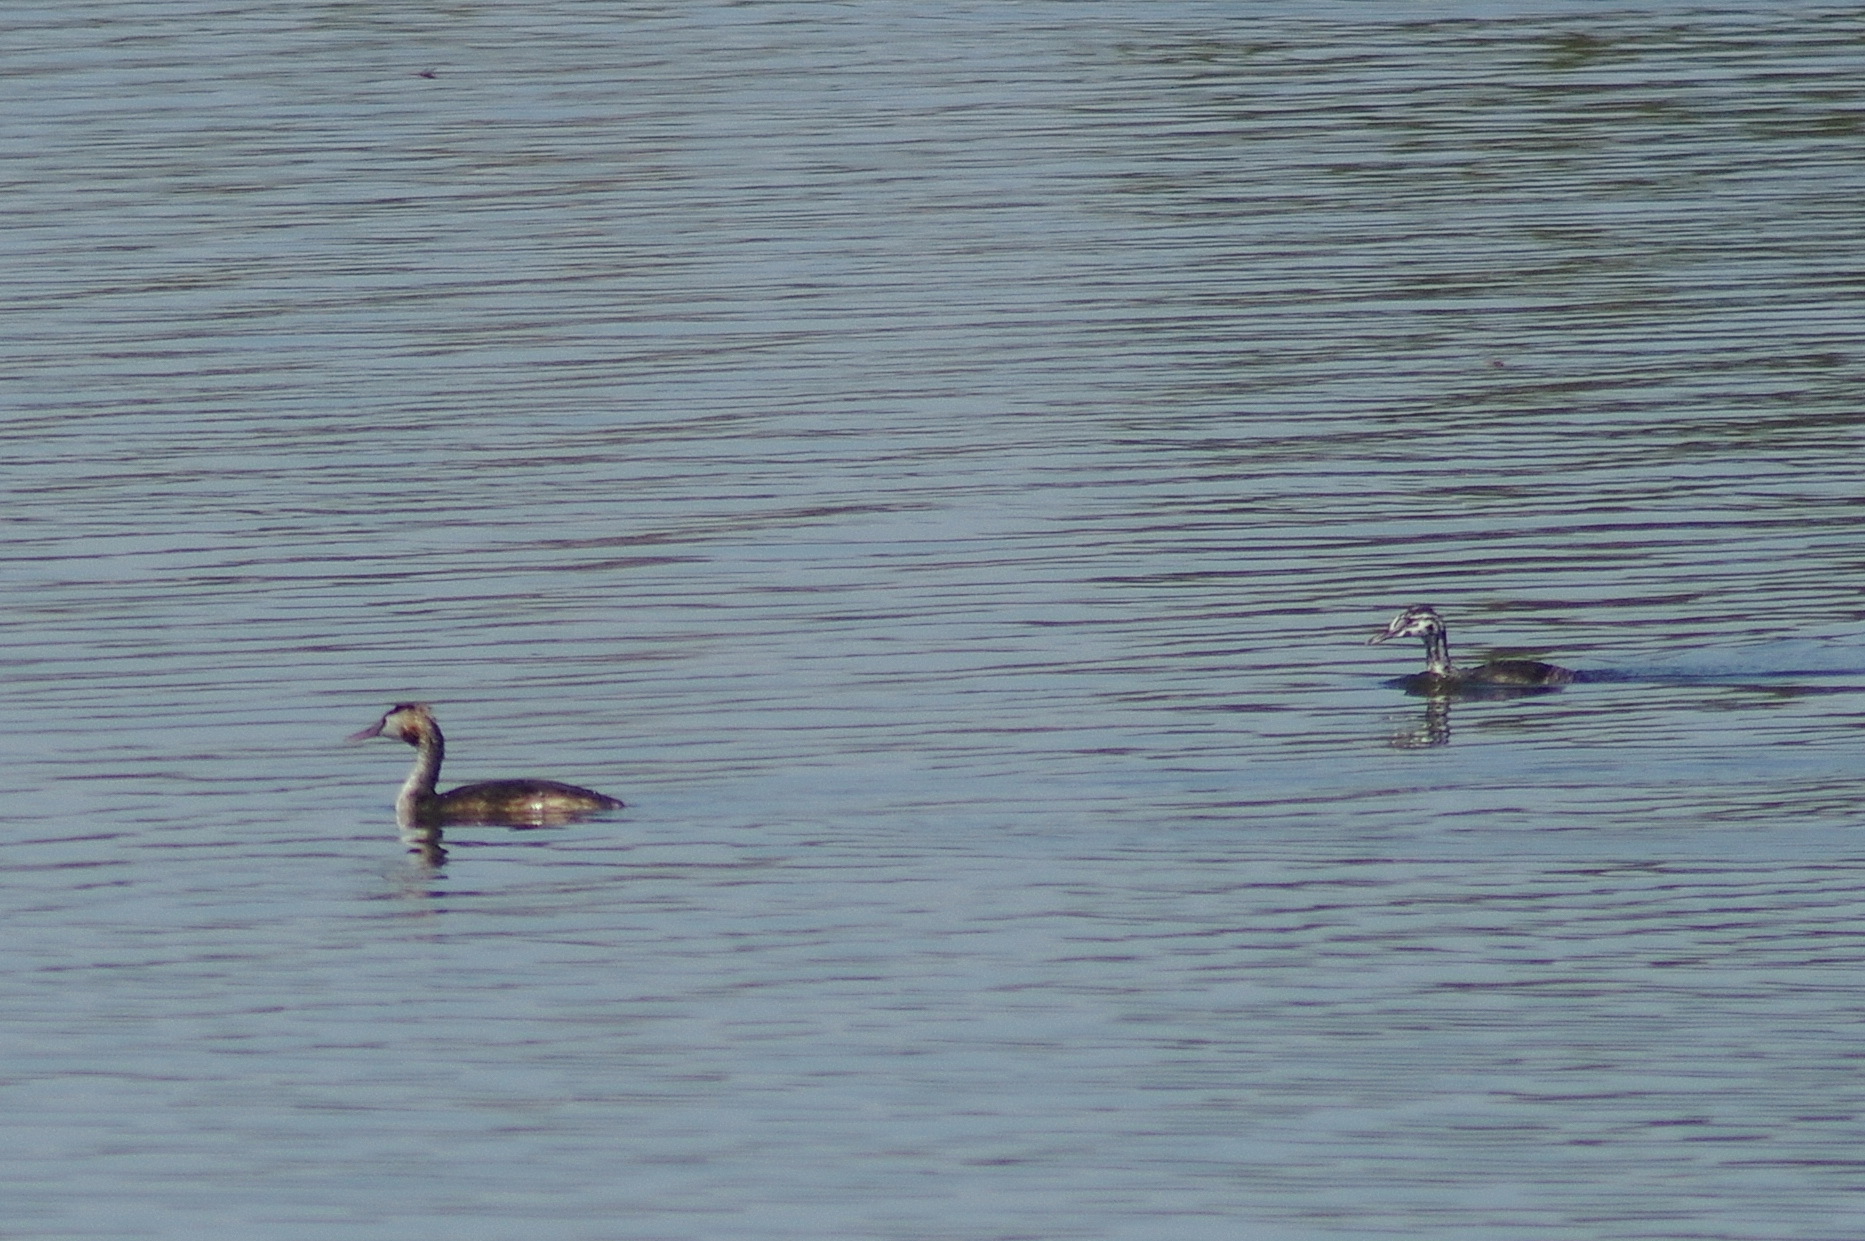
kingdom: Animalia
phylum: Chordata
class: Aves
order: Podicipediformes
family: Podicipedidae
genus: Podiceps
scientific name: Podiceps cristatus
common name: Great crested grebe
